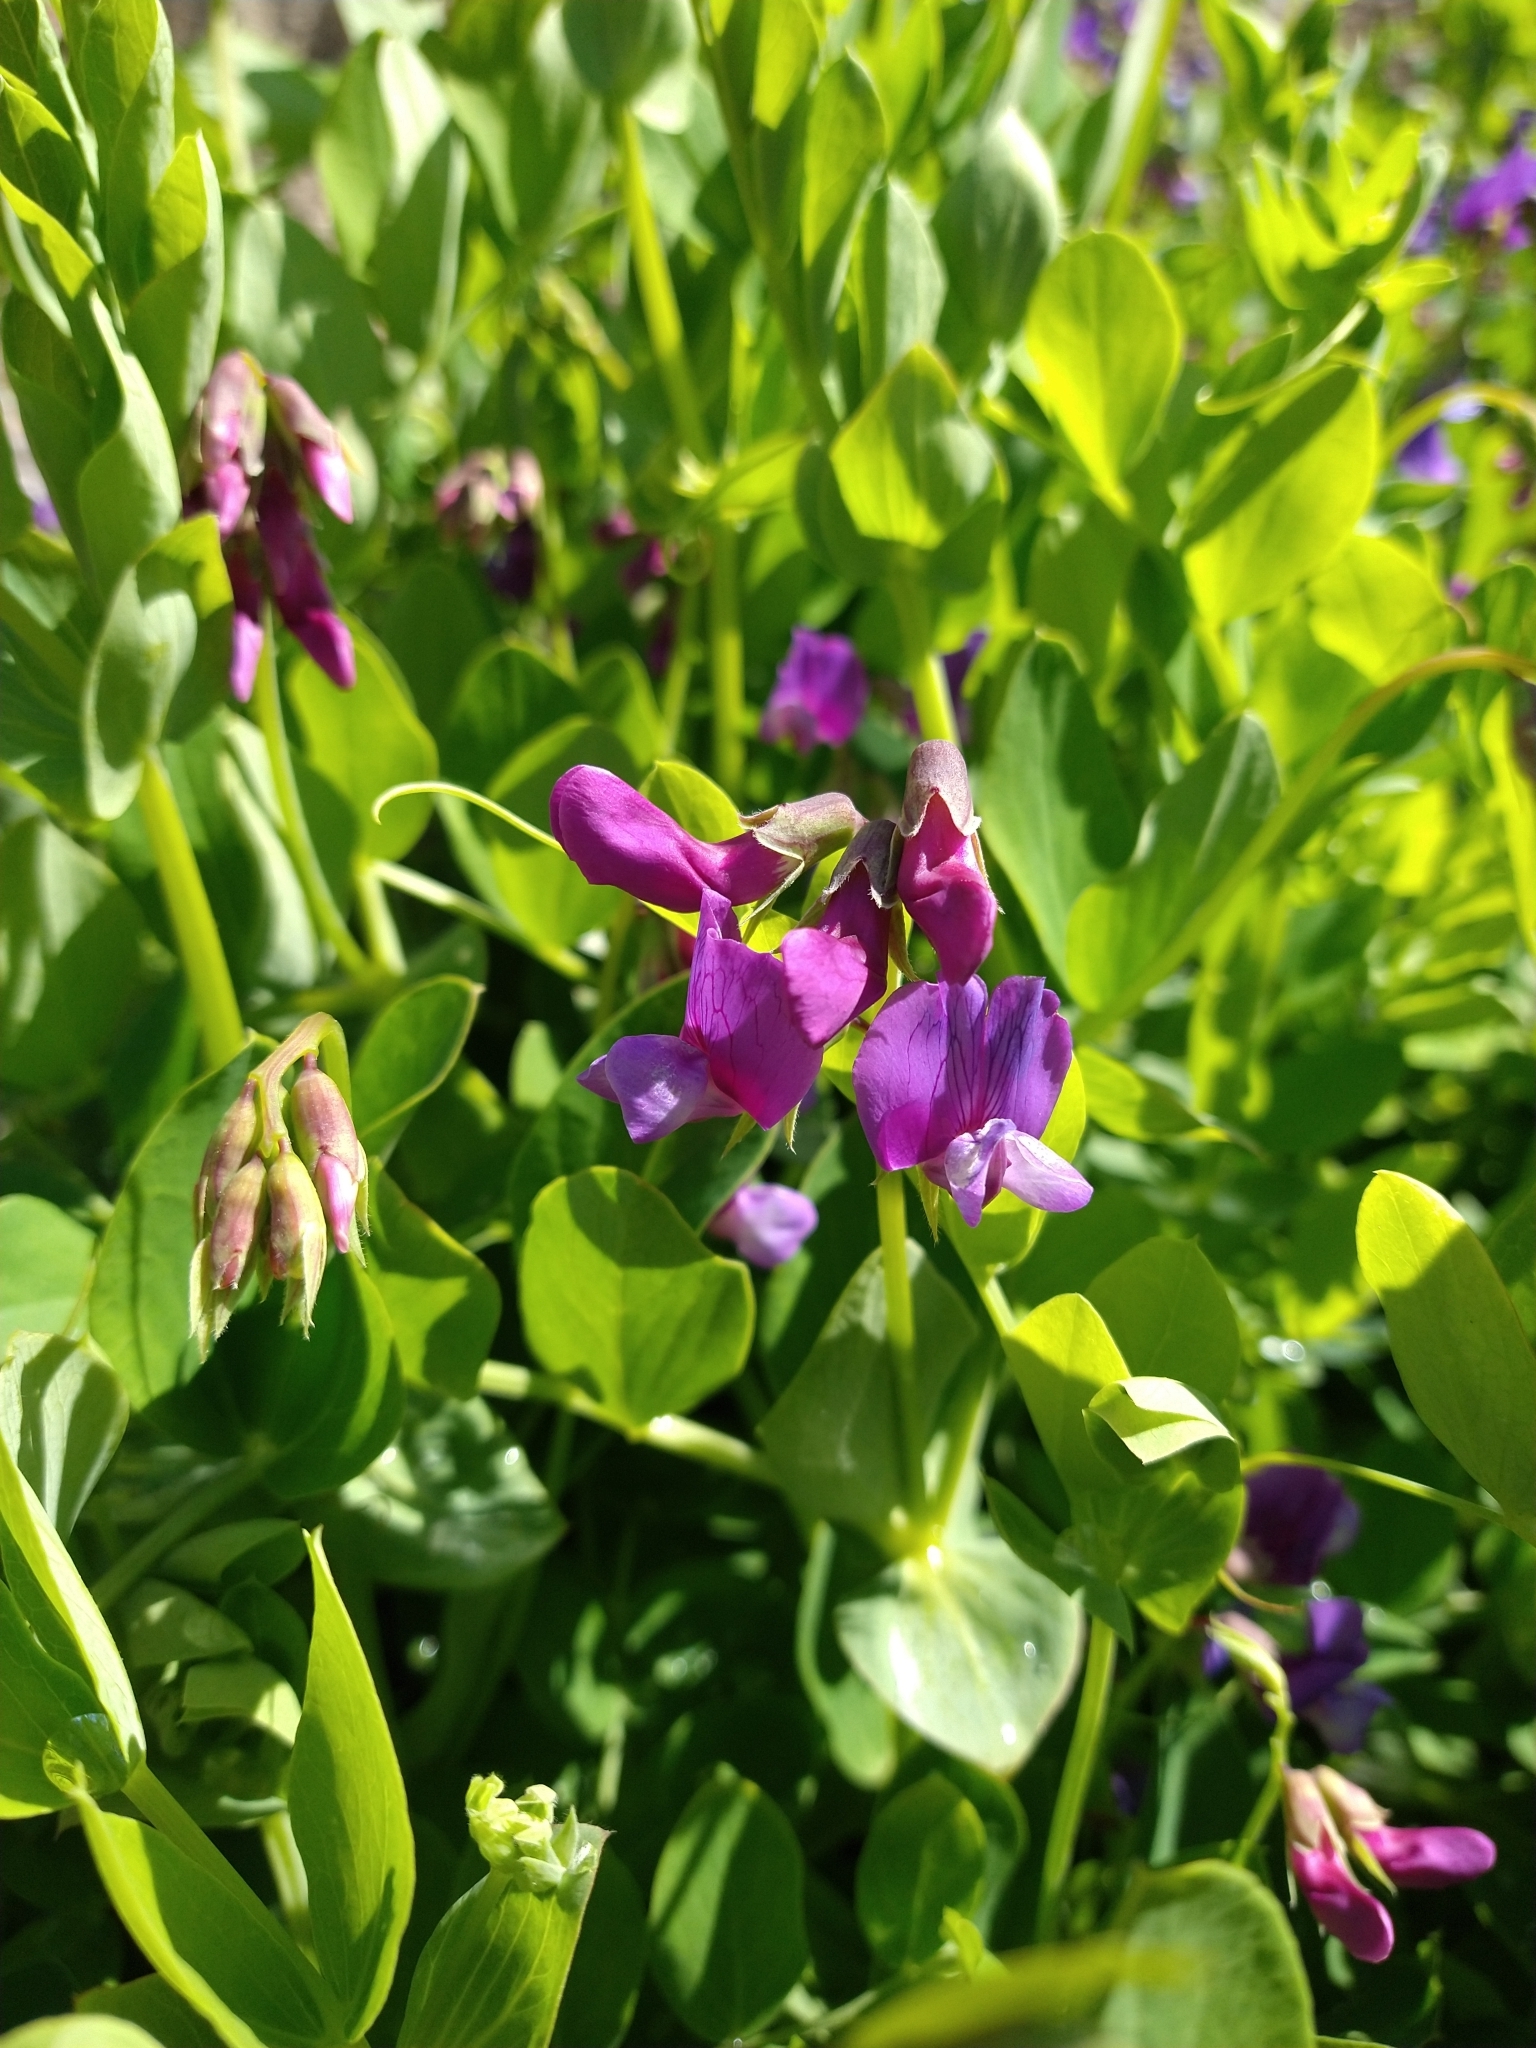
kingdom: Plantae
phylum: Tracheophyta
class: Magnoliopsida
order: Fabales
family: Fabaceae
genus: Lathyrus
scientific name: Lathyrus japonicus
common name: Sea pea
